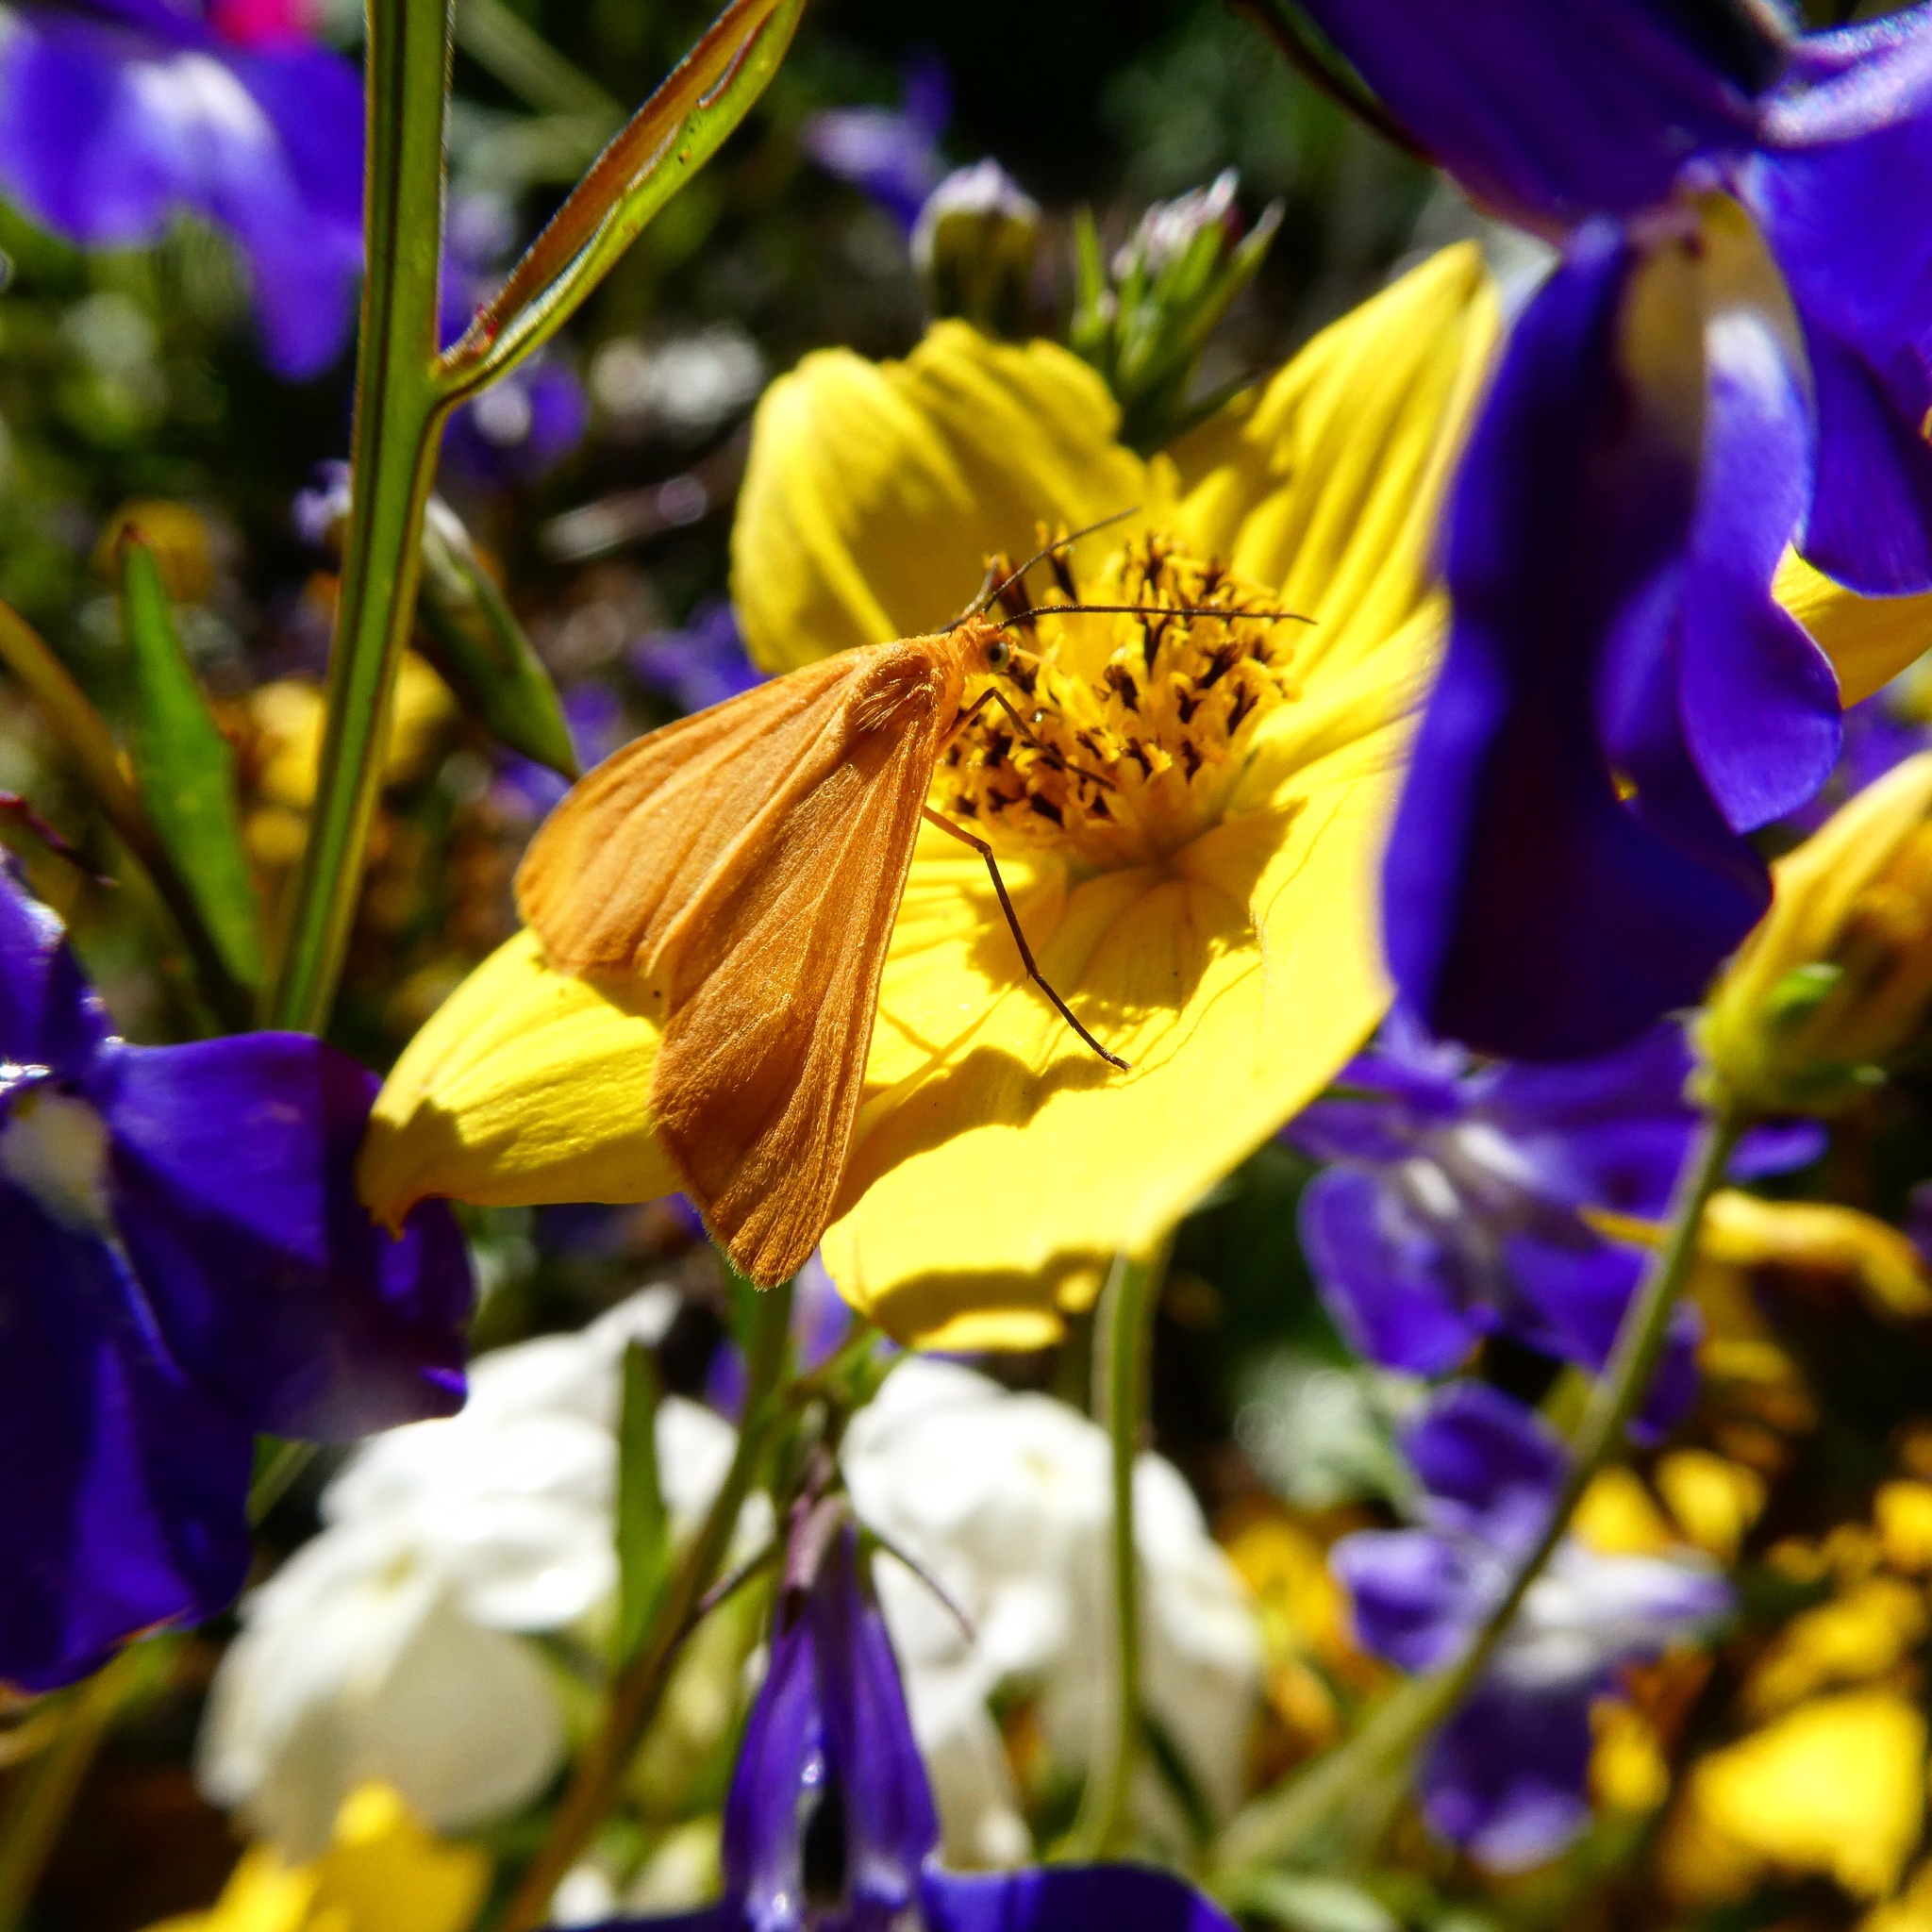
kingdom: Animalia
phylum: Arthropoda
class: Insecta
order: Lepidoptera
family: Geometridae
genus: Eubaphe
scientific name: Eubaphe unicolor
